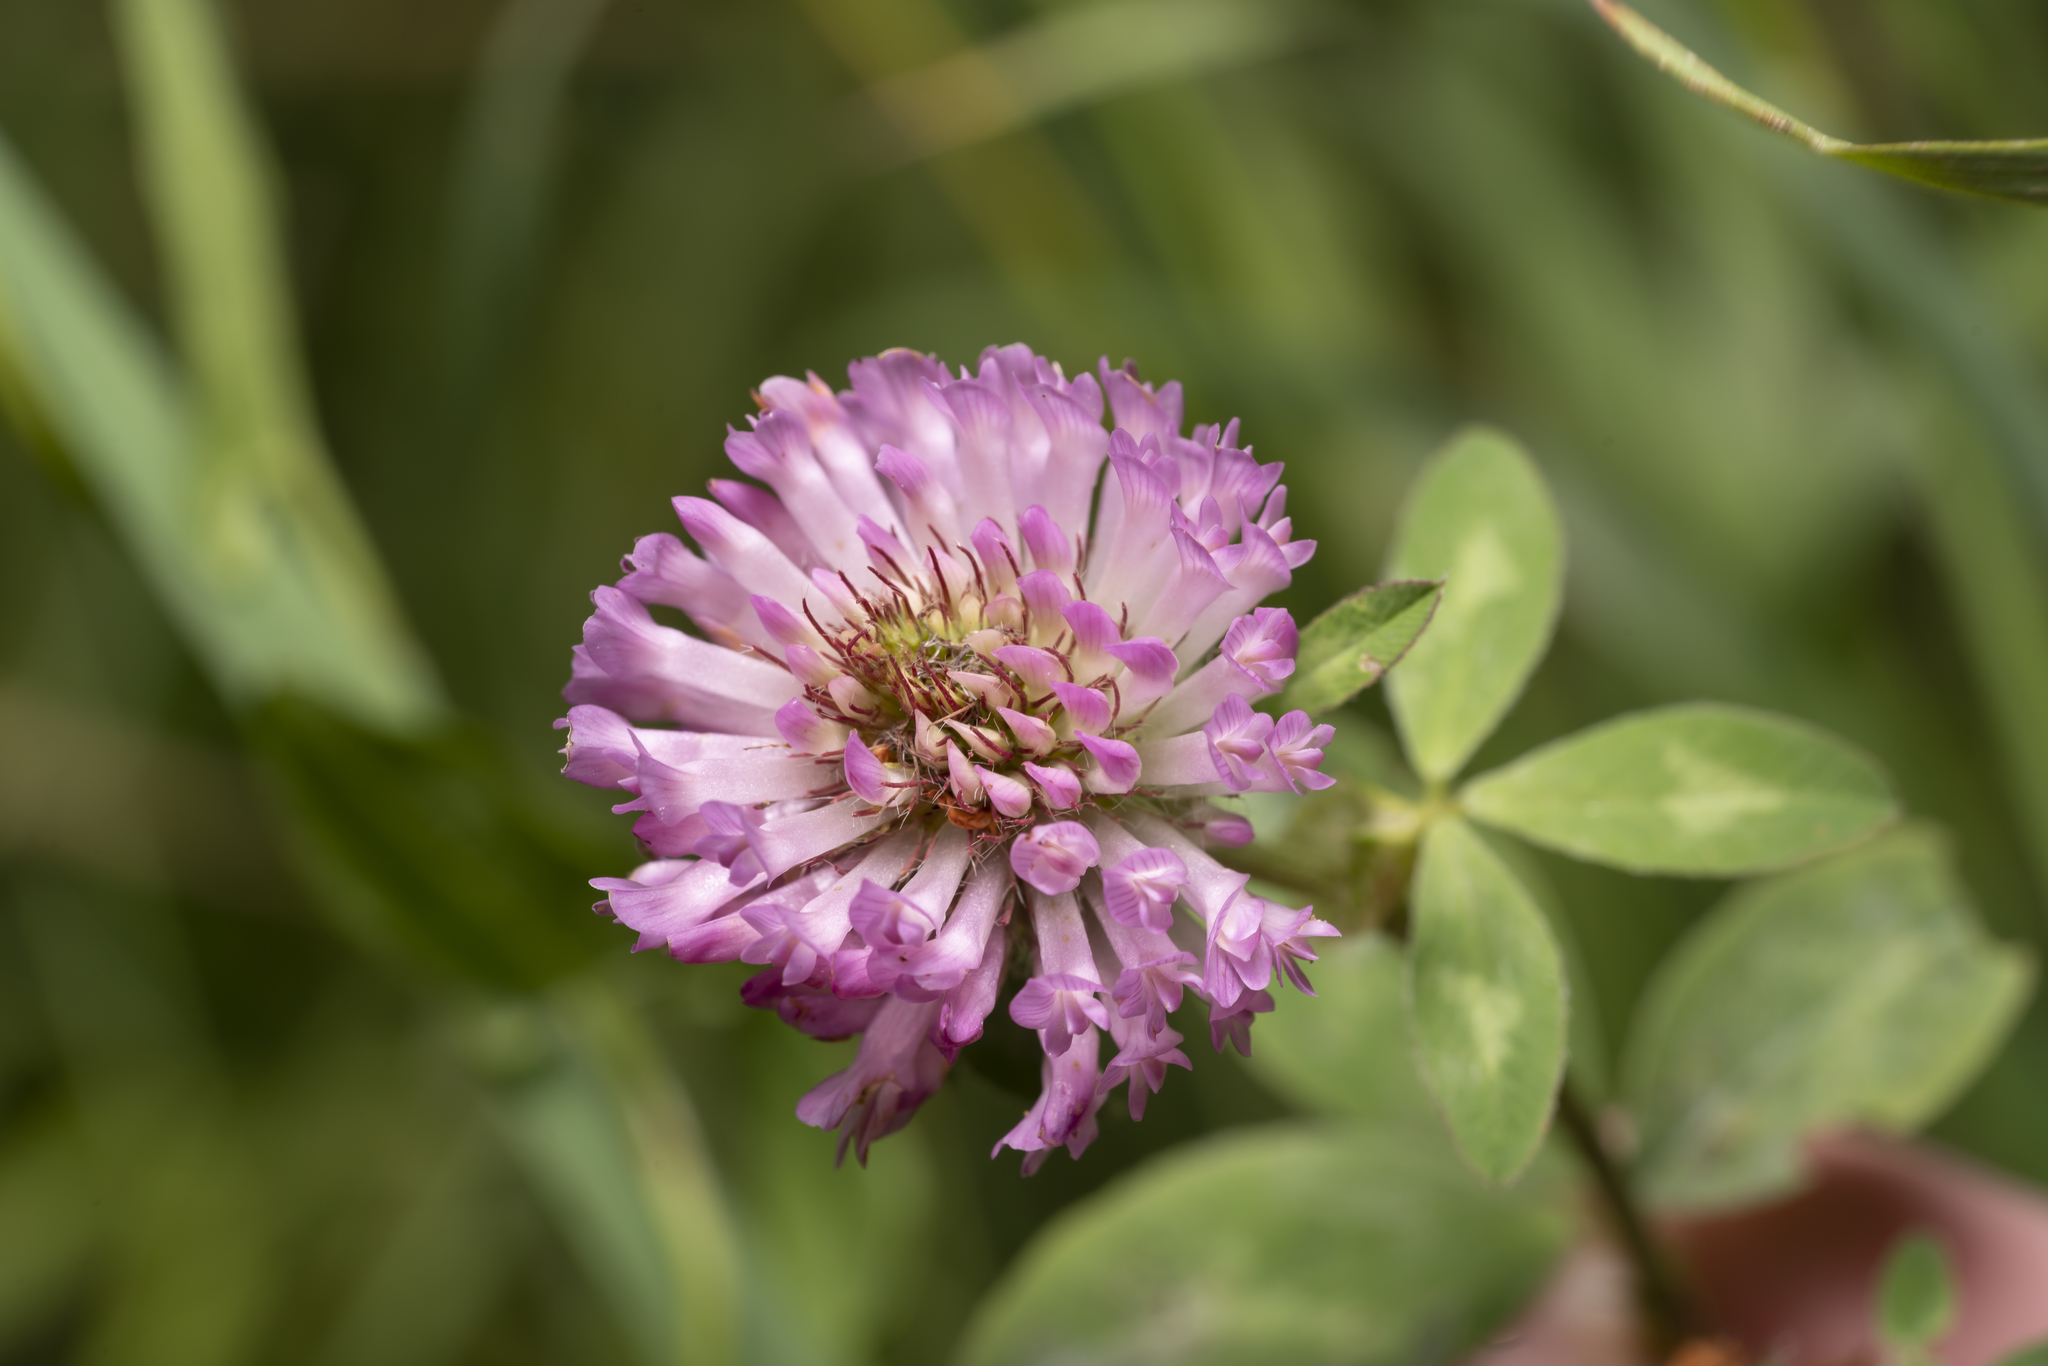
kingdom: Plantae
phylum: Tracheophyta
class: Magnoliopsida
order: Fabales
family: Fabaceae
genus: Trifolium
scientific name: Trifolium pratense
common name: Red clover
